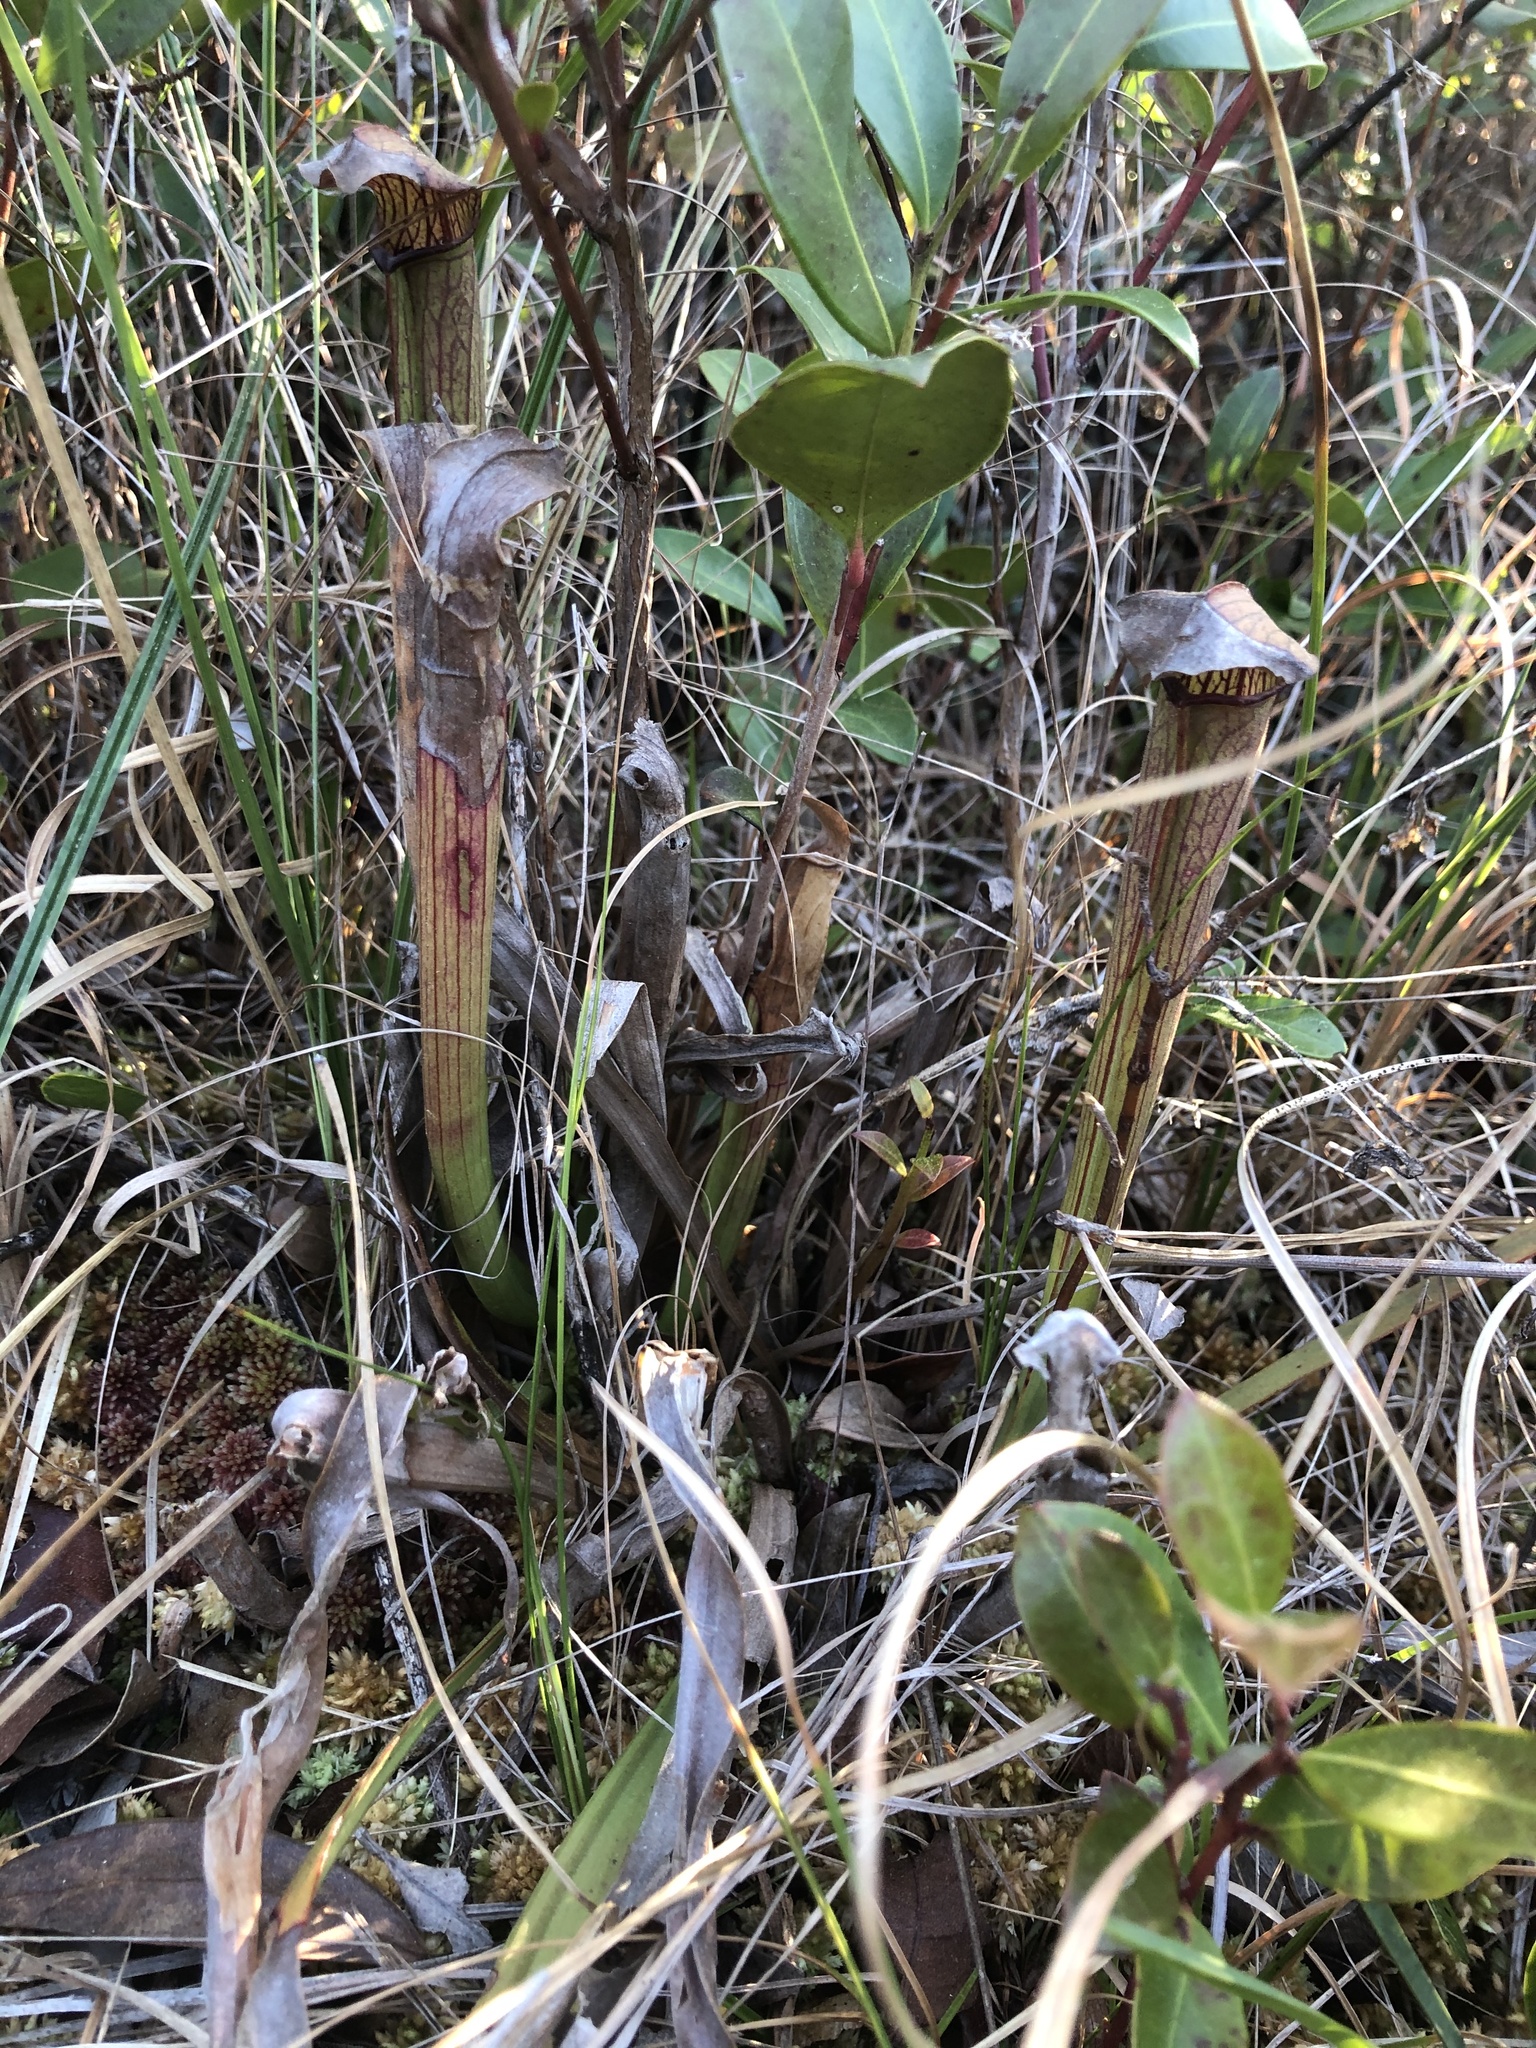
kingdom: Plantae
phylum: Tracheophyta
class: Magnoliopsida
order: Ericales
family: Sarraceniaceae
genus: Sarracenia
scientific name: Sarracenia rubra
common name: Sweet pitcherplant
